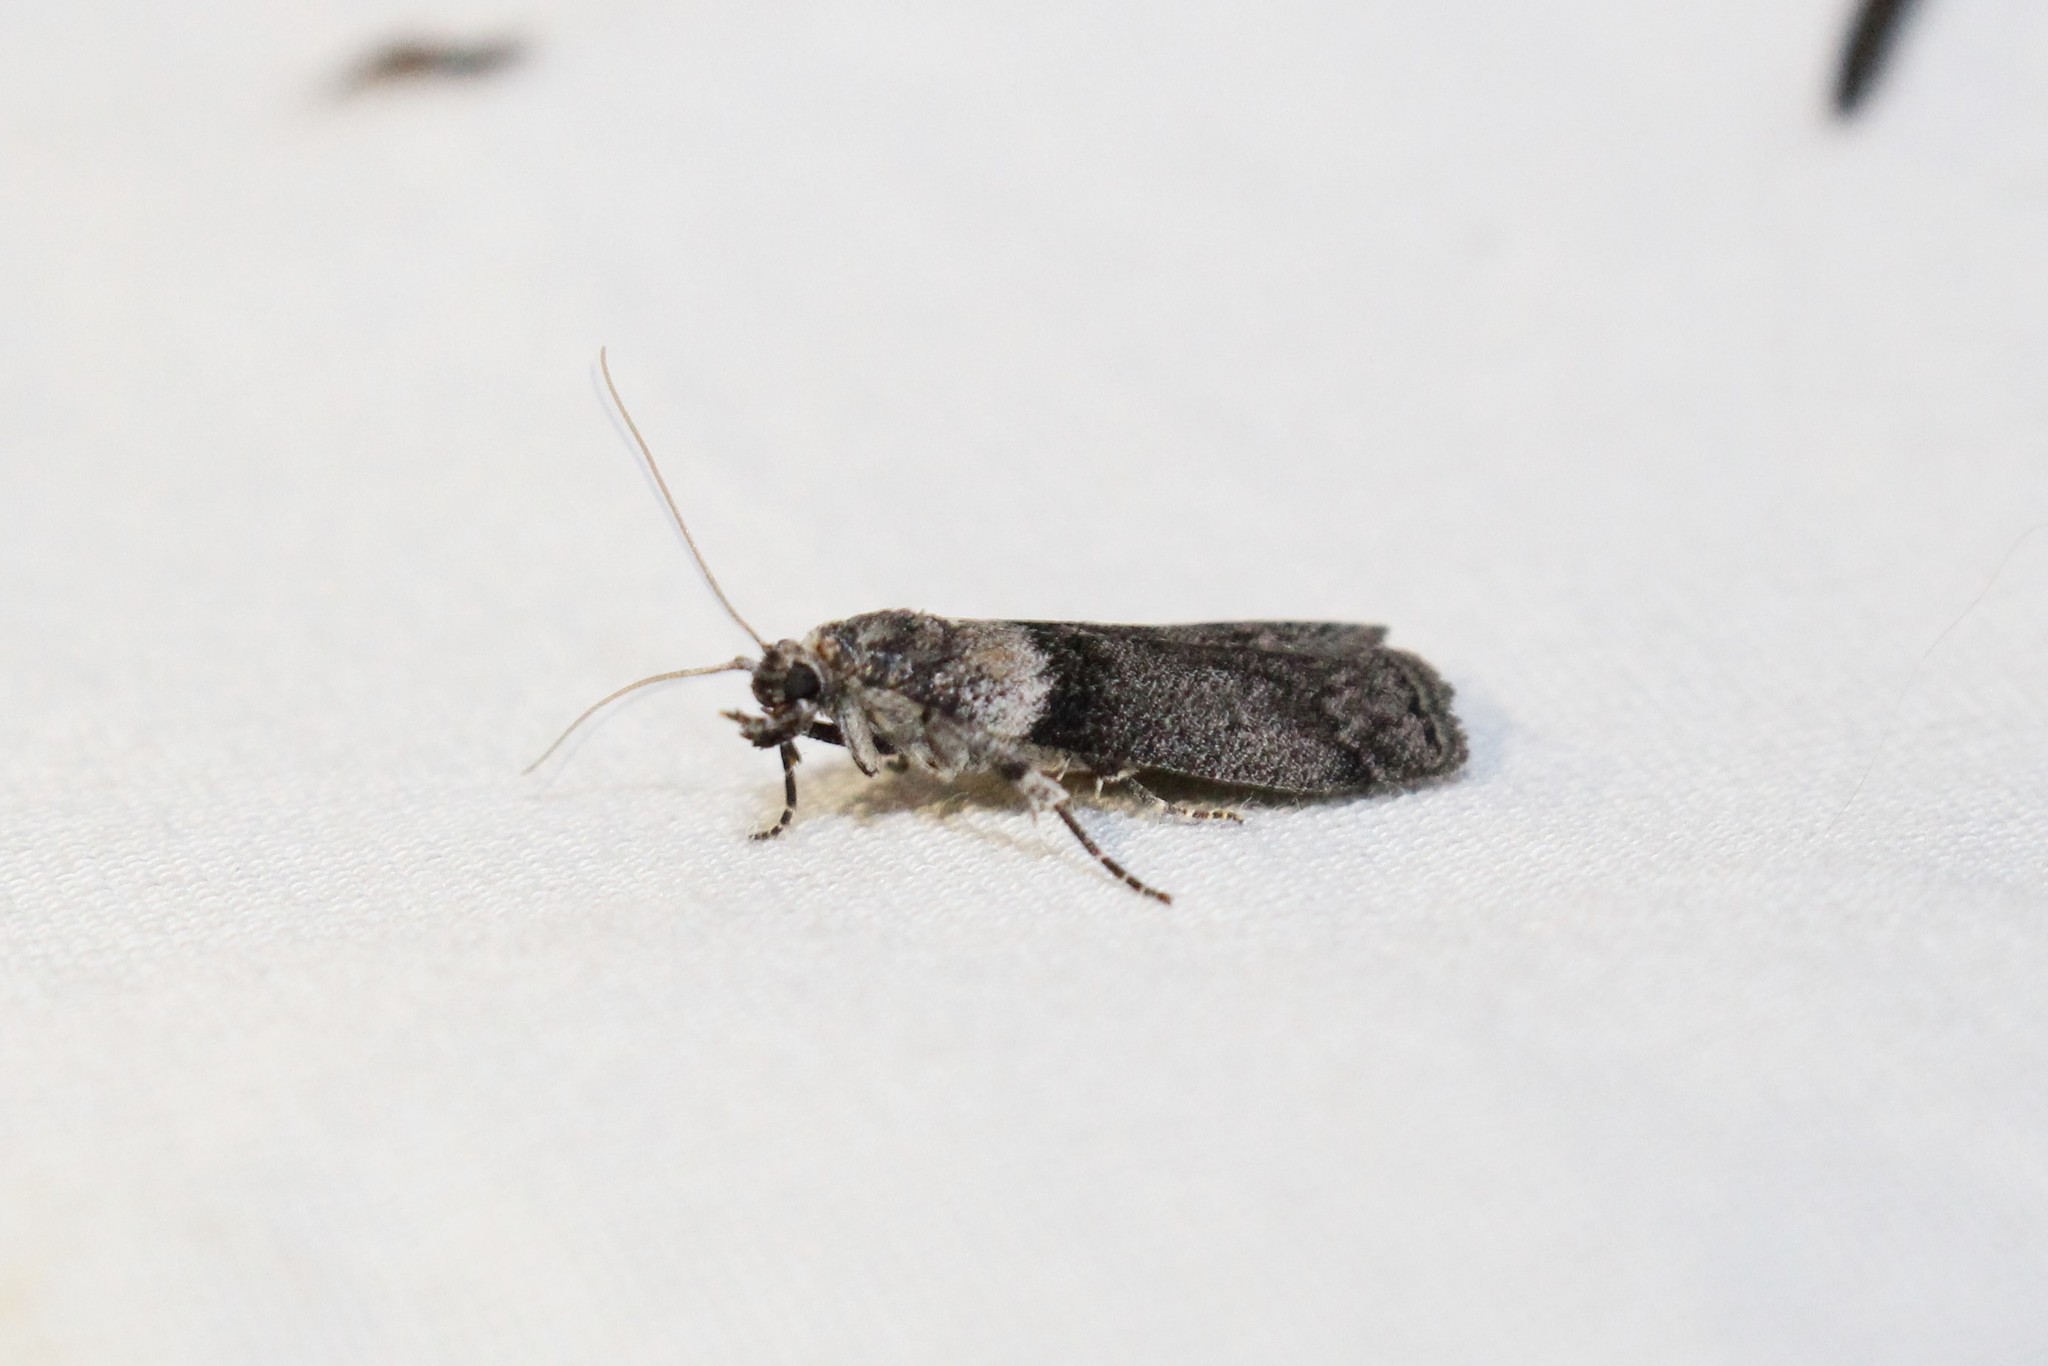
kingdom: Animalia
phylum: Arthropoda
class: Insecta
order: Lepidoptera
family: Pyralidae
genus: Meroptera
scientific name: Meroptera pravella
